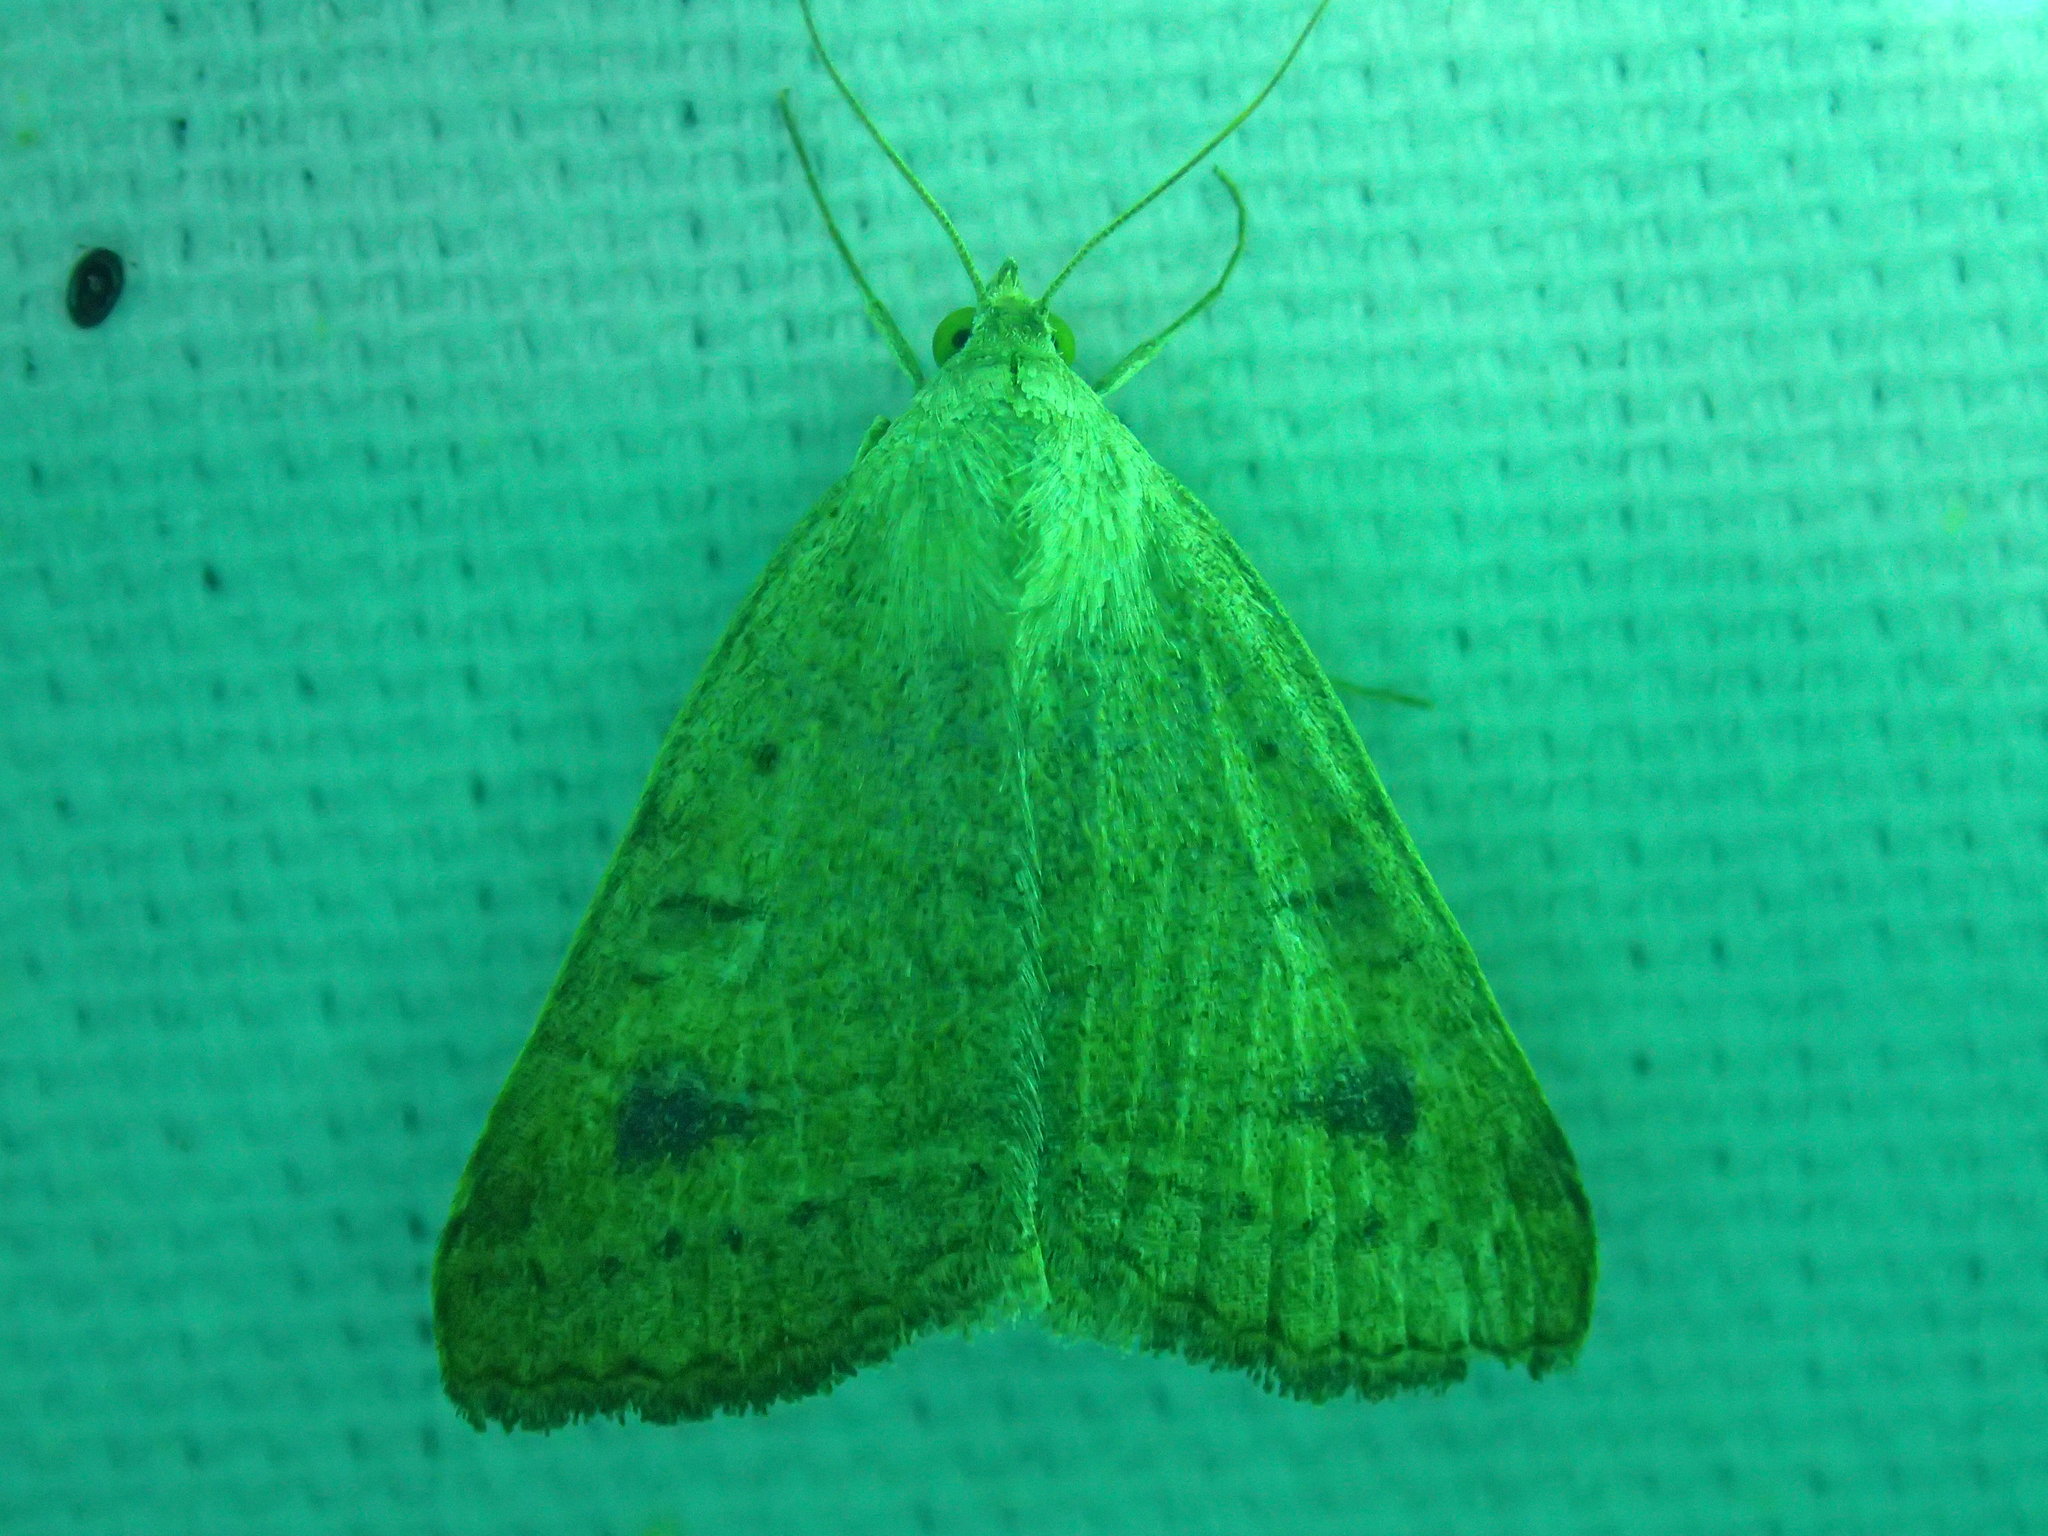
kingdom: Animalia
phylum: Arthropoda
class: Insecta
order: Lepidoptera
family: Erebidae
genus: Caenurgia
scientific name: Caenurgia chloropha
